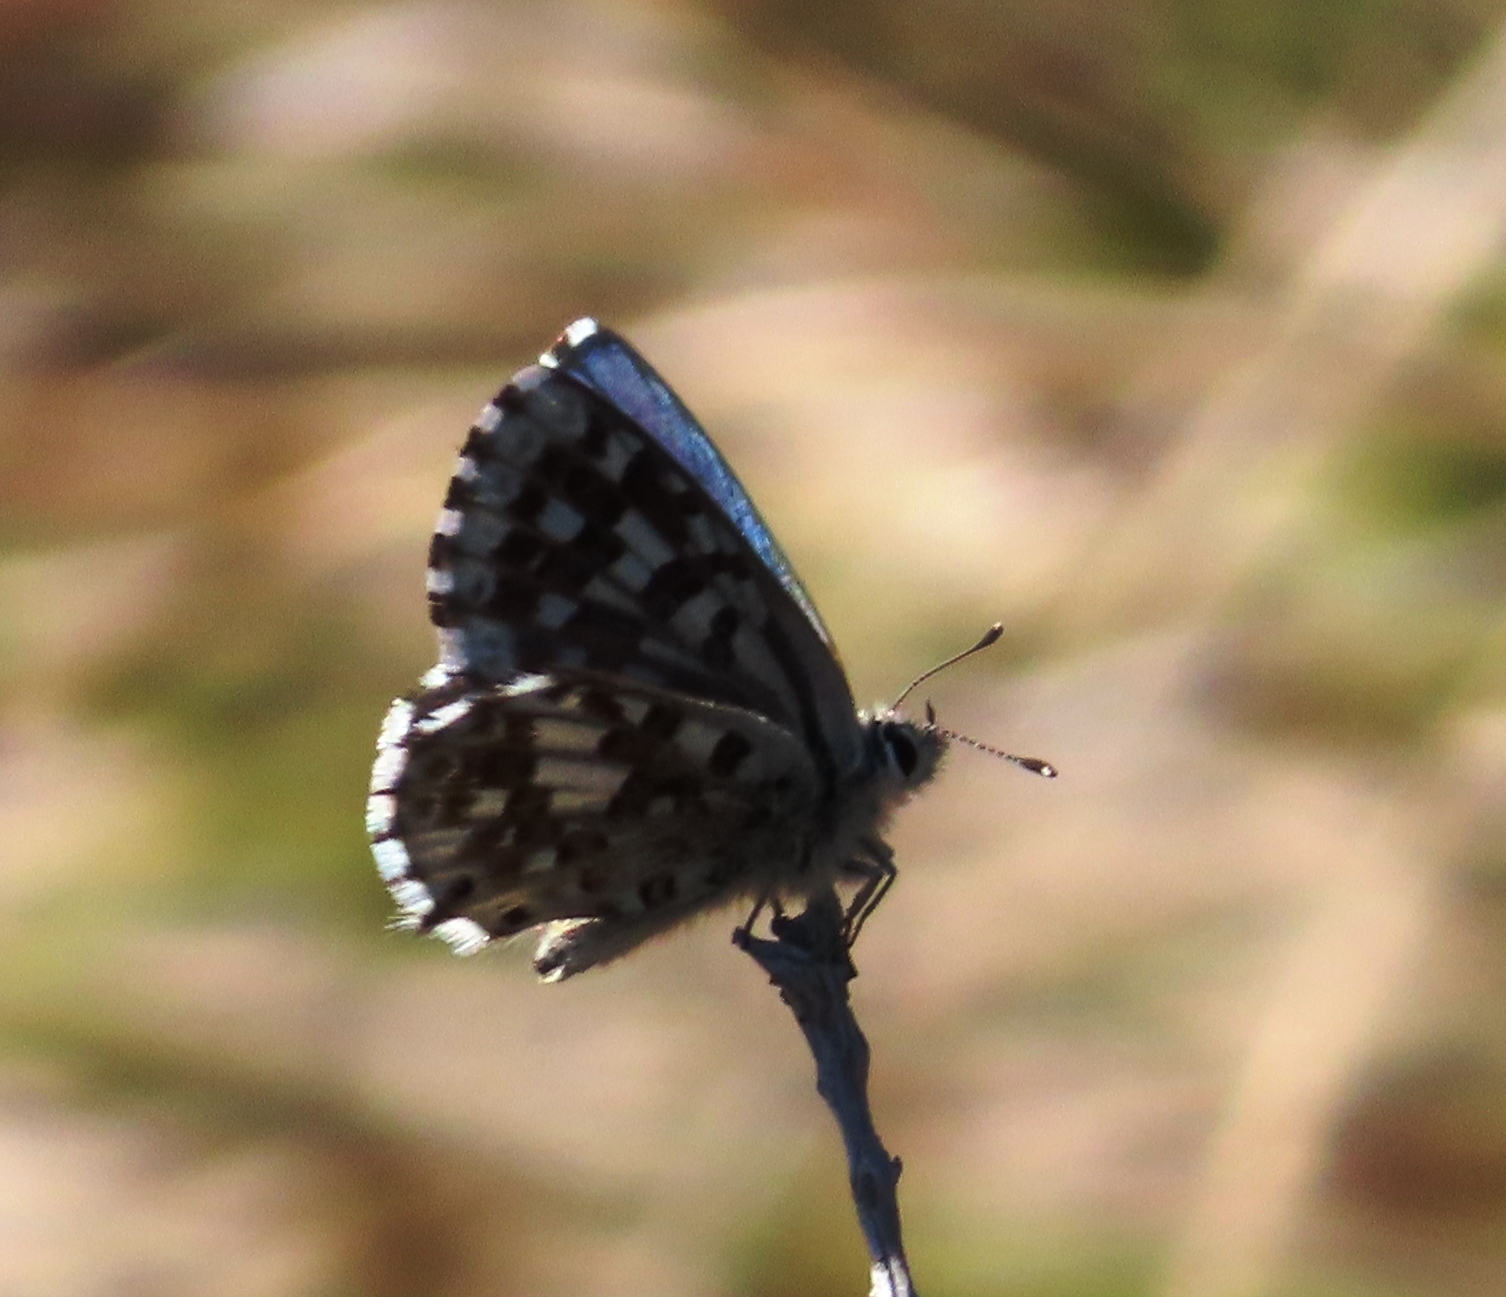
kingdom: Animalia
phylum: Arthropoda
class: Insecta
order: Lepidoptera
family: Lycaenidae
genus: Tarucus
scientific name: Tarucus thespis
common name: Vivid dotted blue
